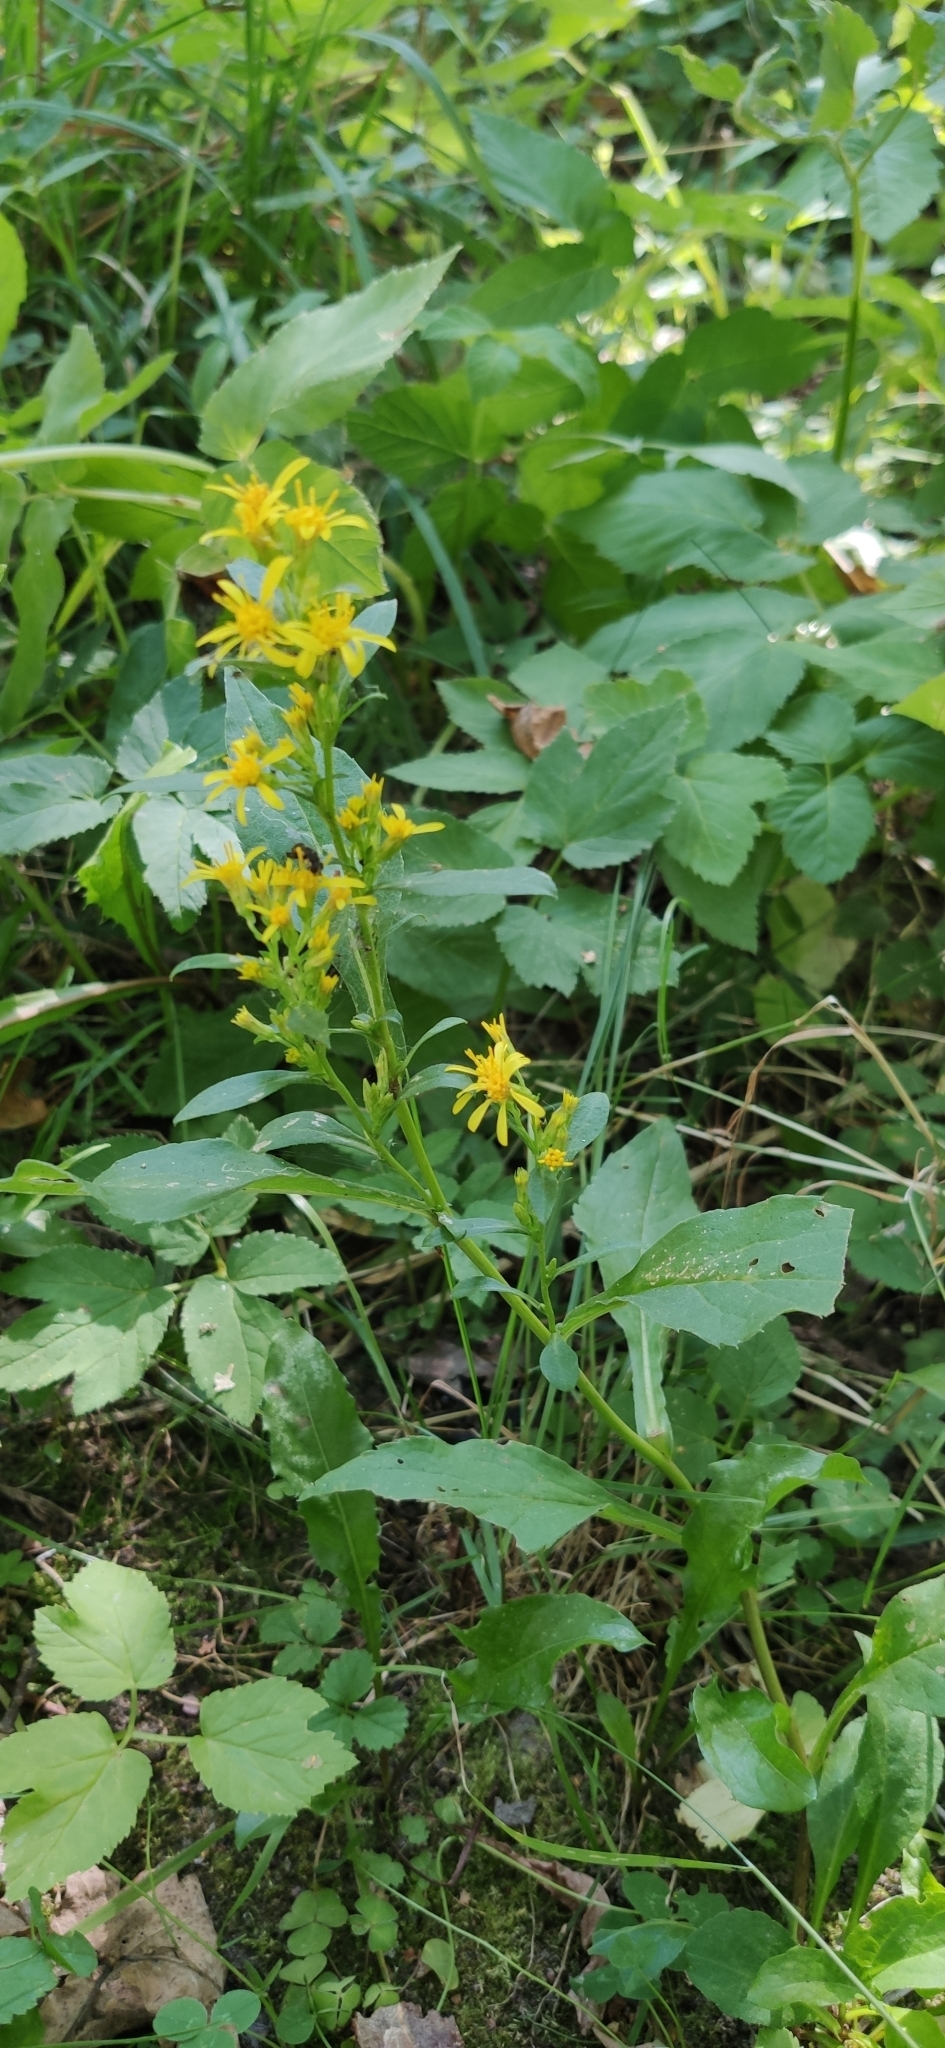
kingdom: Plantae
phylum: Tracheophyta
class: Magnoliopsida
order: Asterales
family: Asteraceae
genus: Solidago
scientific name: Solidago virgaurea
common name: Goldenrod
